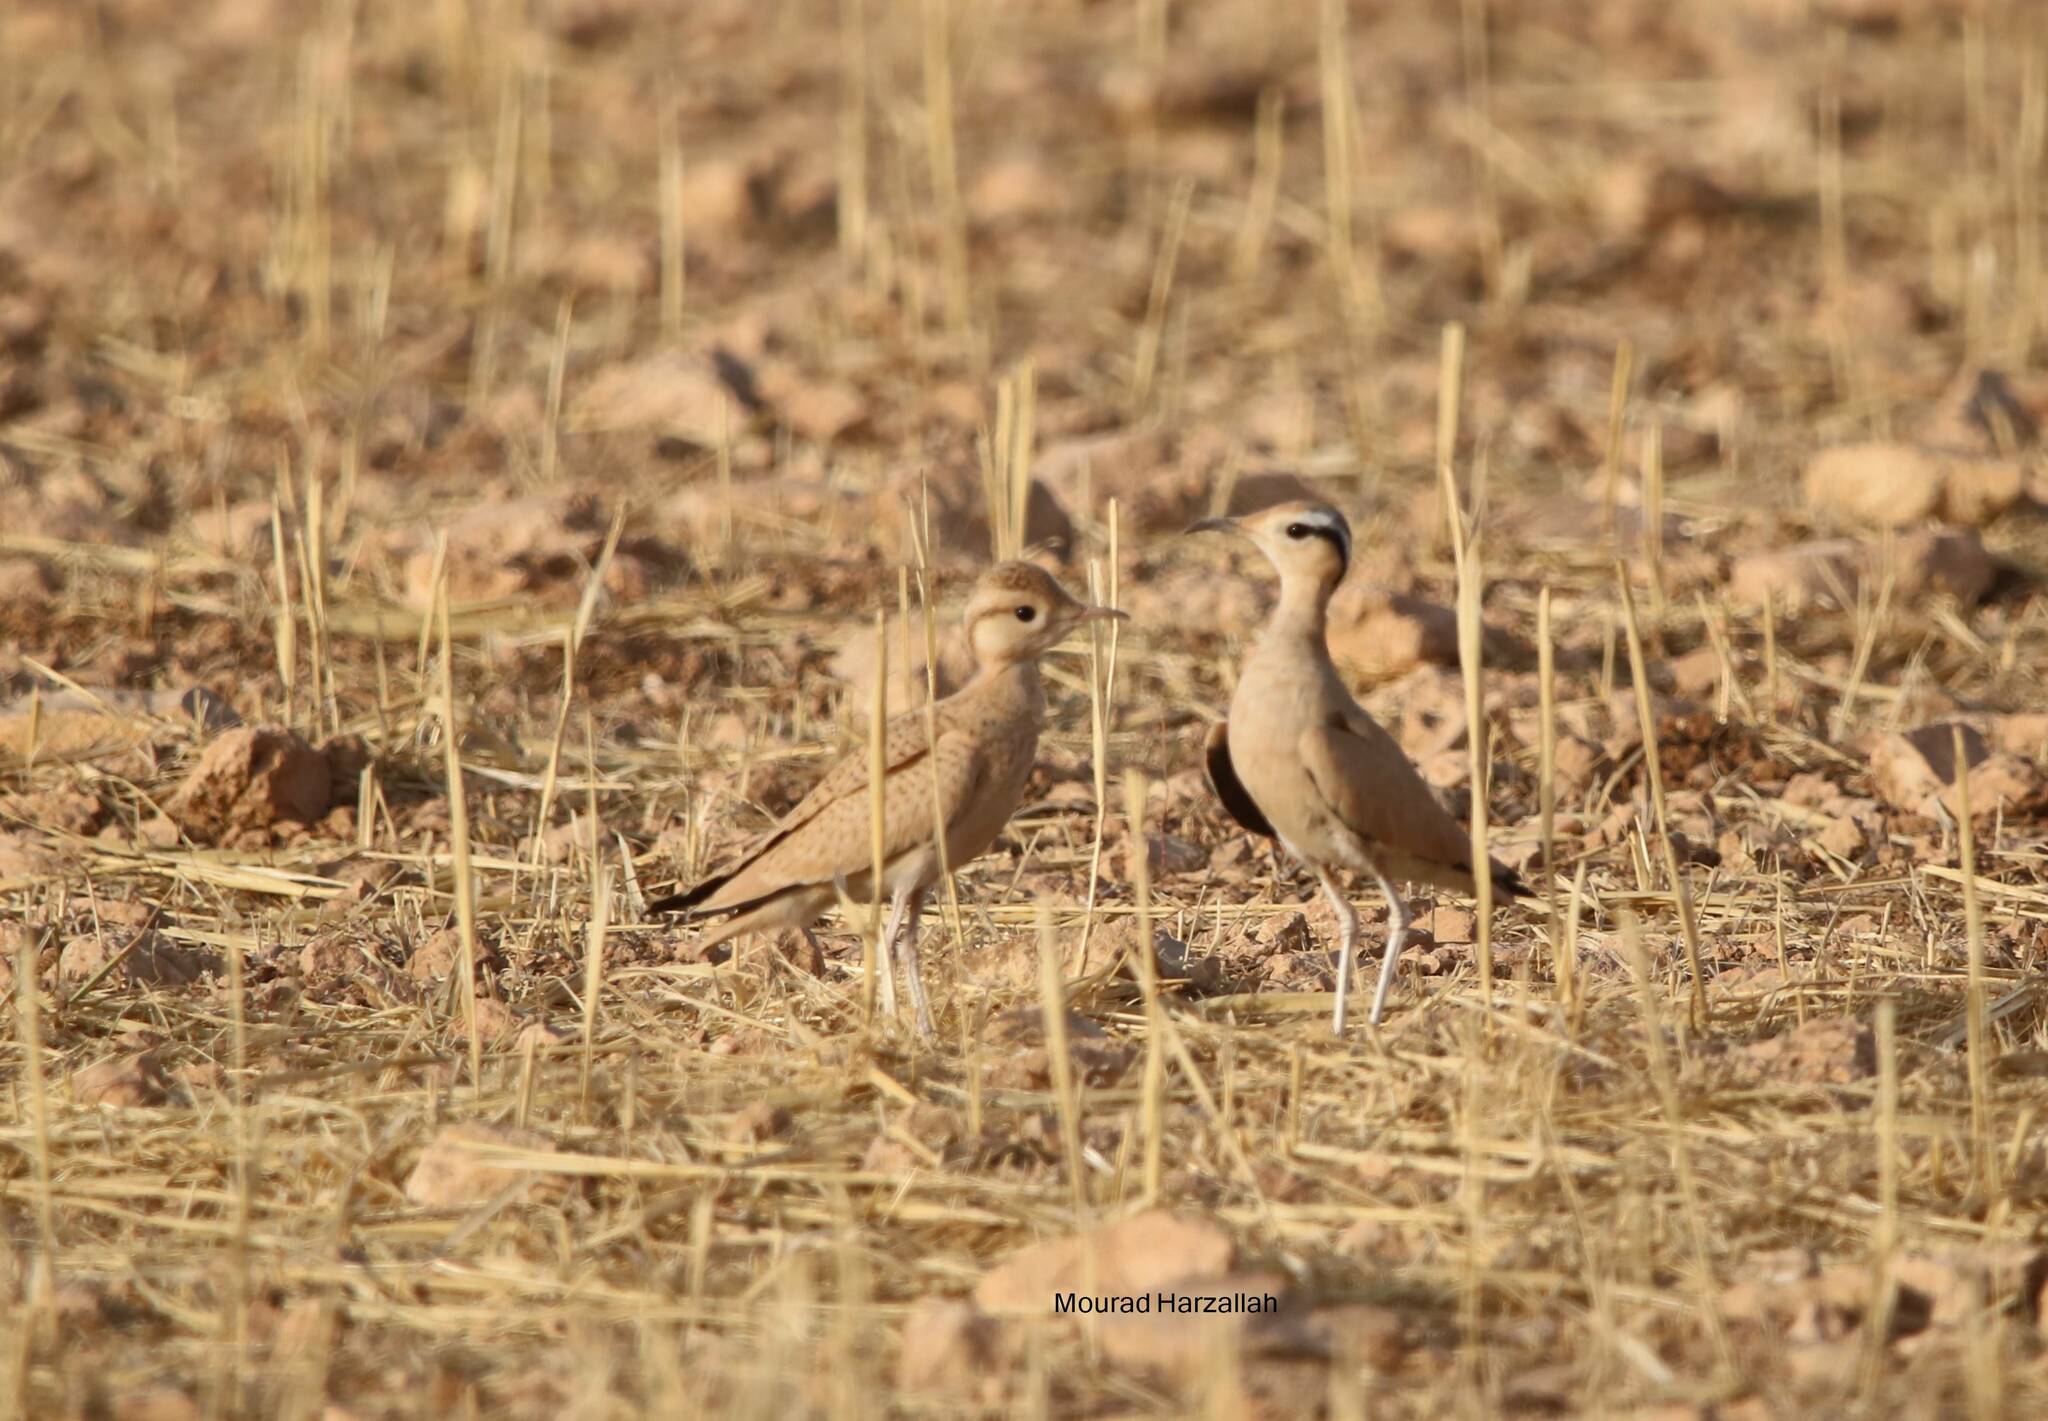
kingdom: Animalia
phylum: Chordata
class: Aves
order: Charadriiformes
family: Glareolidae
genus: Cursorius
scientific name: Cursorius cursor
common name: Cream-colored courser
